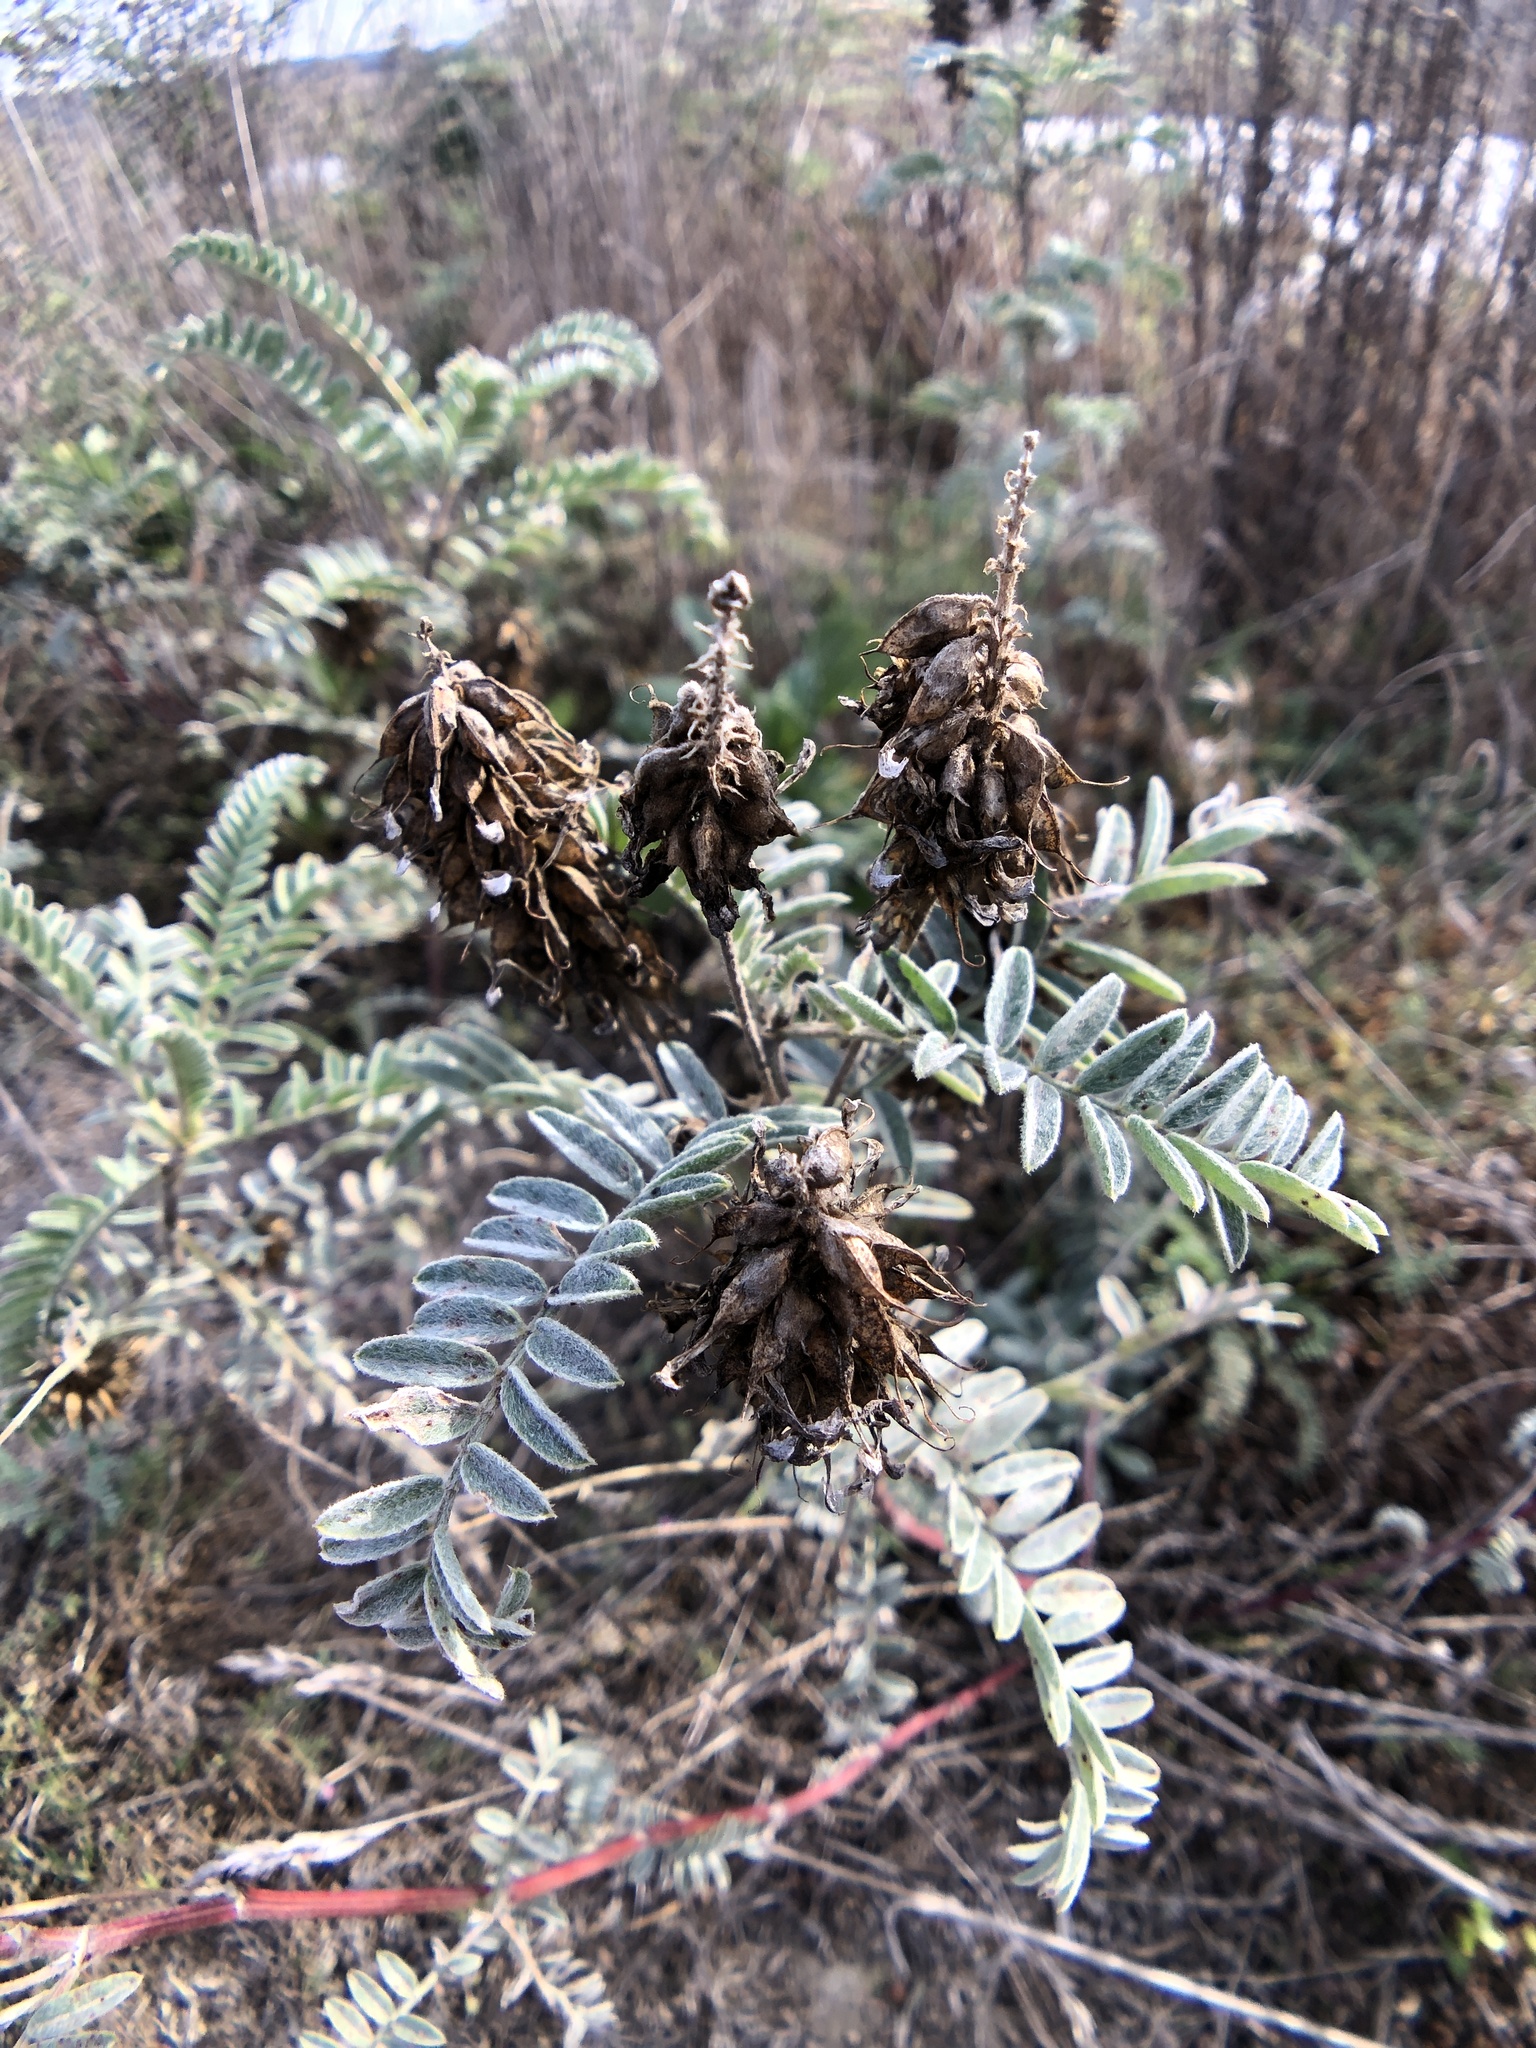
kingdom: Plantae
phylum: Tracheophyta
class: Magnoliopsida
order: Fabales
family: Fabaceae
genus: Astragalus
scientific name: Astragalus pycnostachyus
